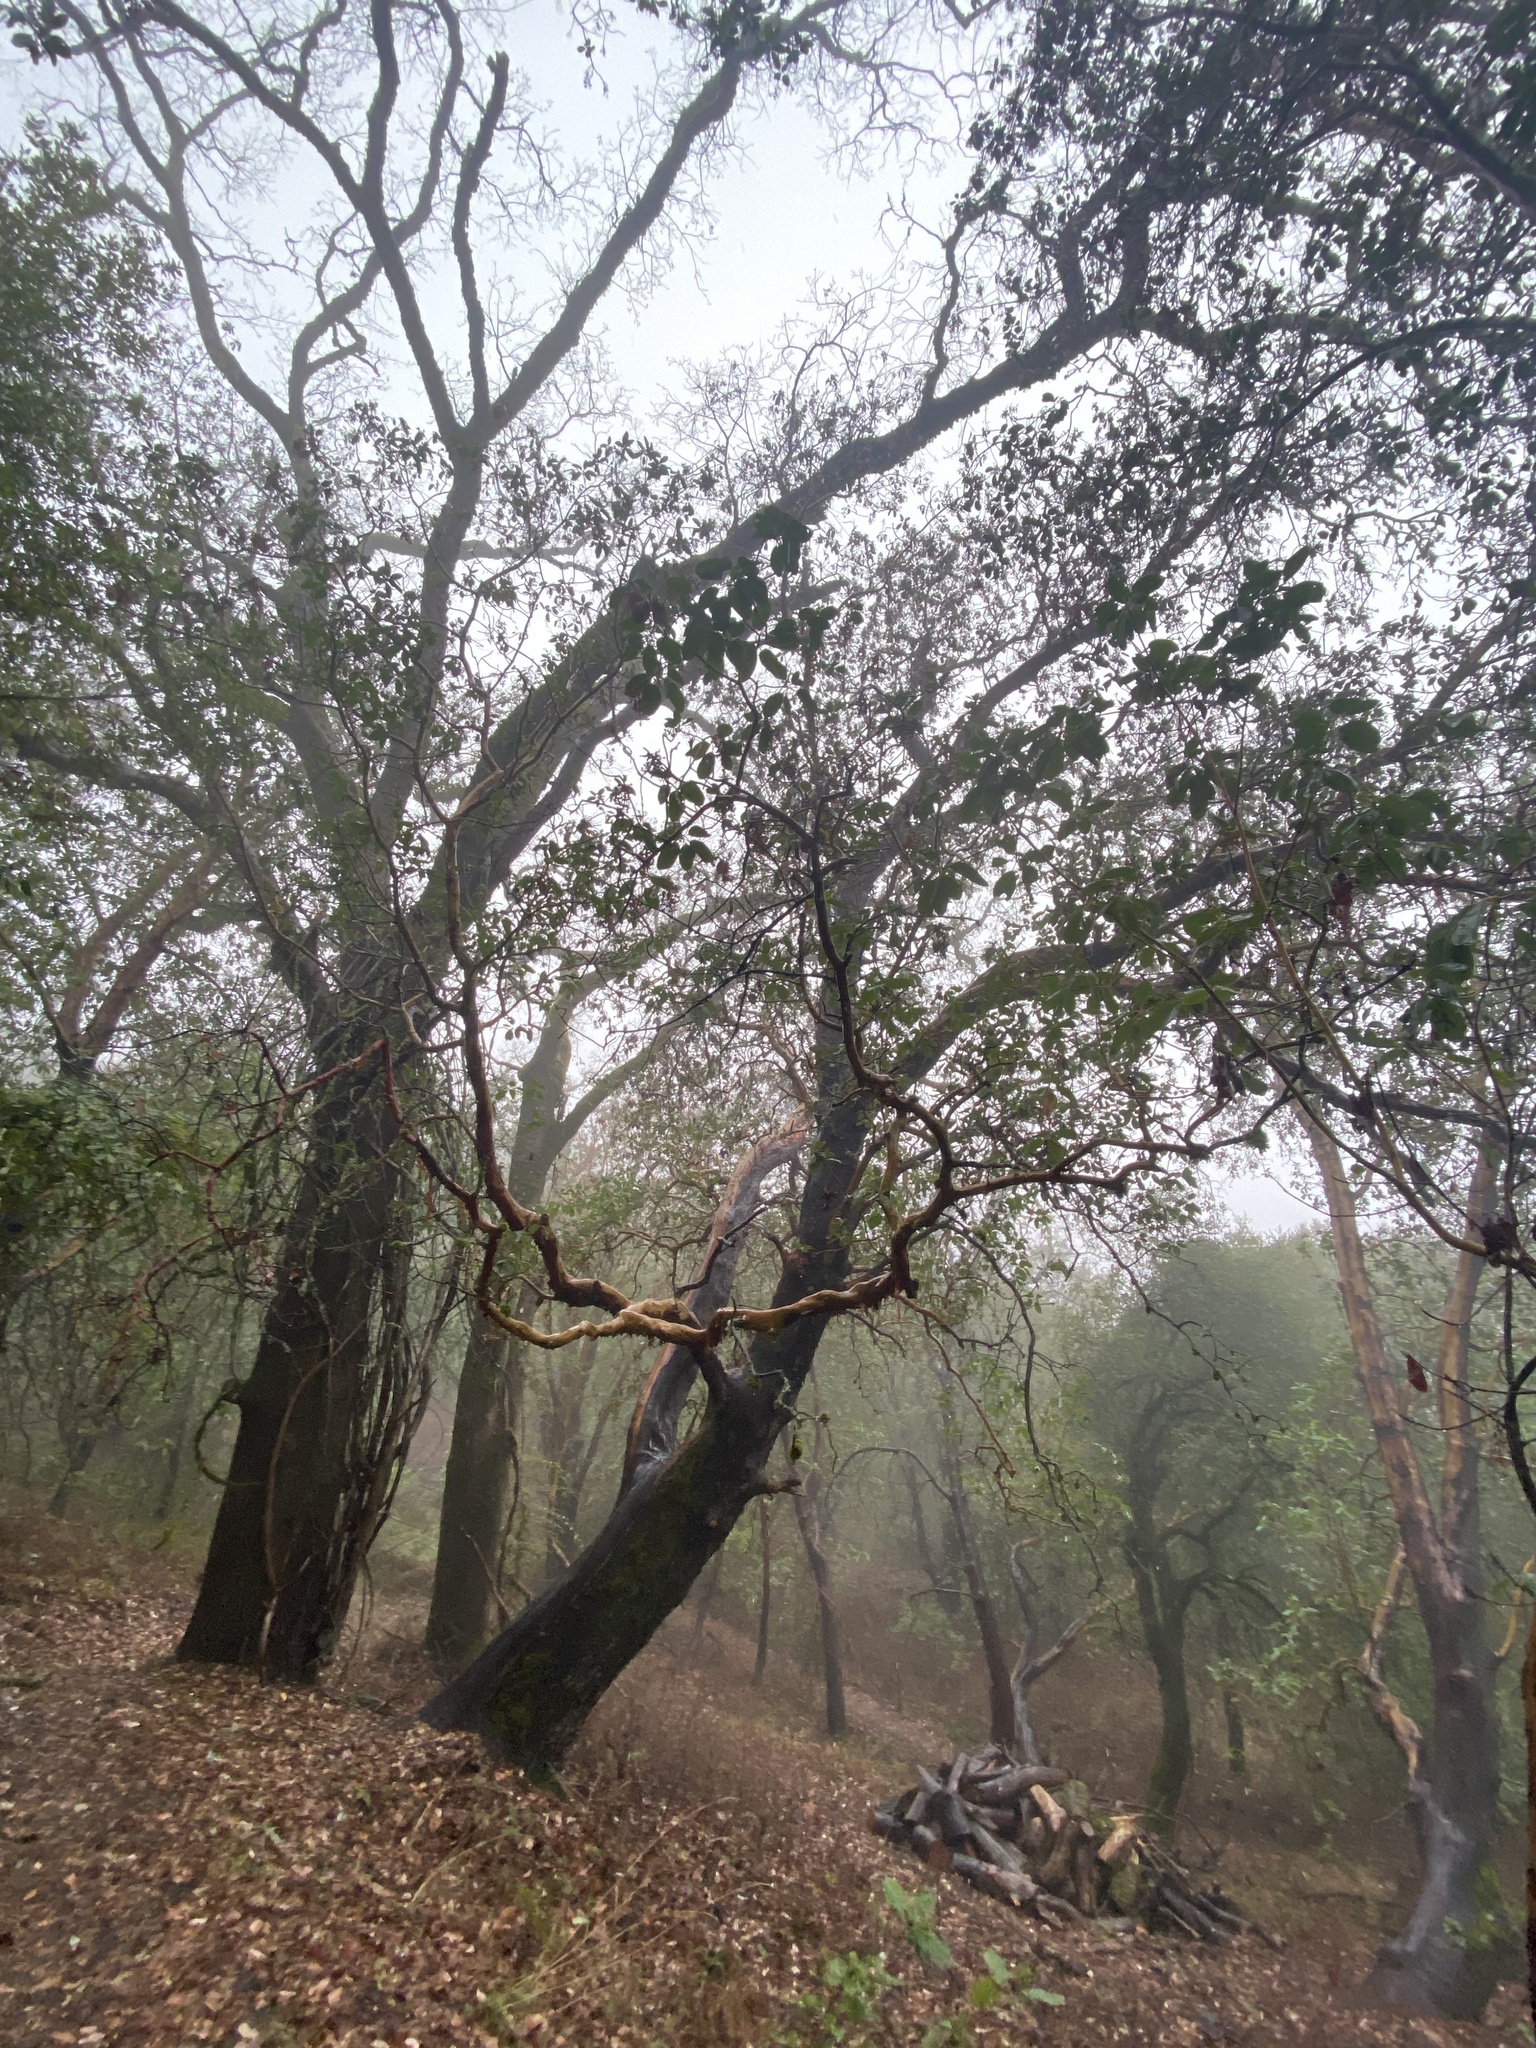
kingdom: Plantae
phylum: Tracheophyta
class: Magnoliopsida
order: Ericales
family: Ericaceae
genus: Arbutus
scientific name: Arbutus menziesii
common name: Pacific madrone
